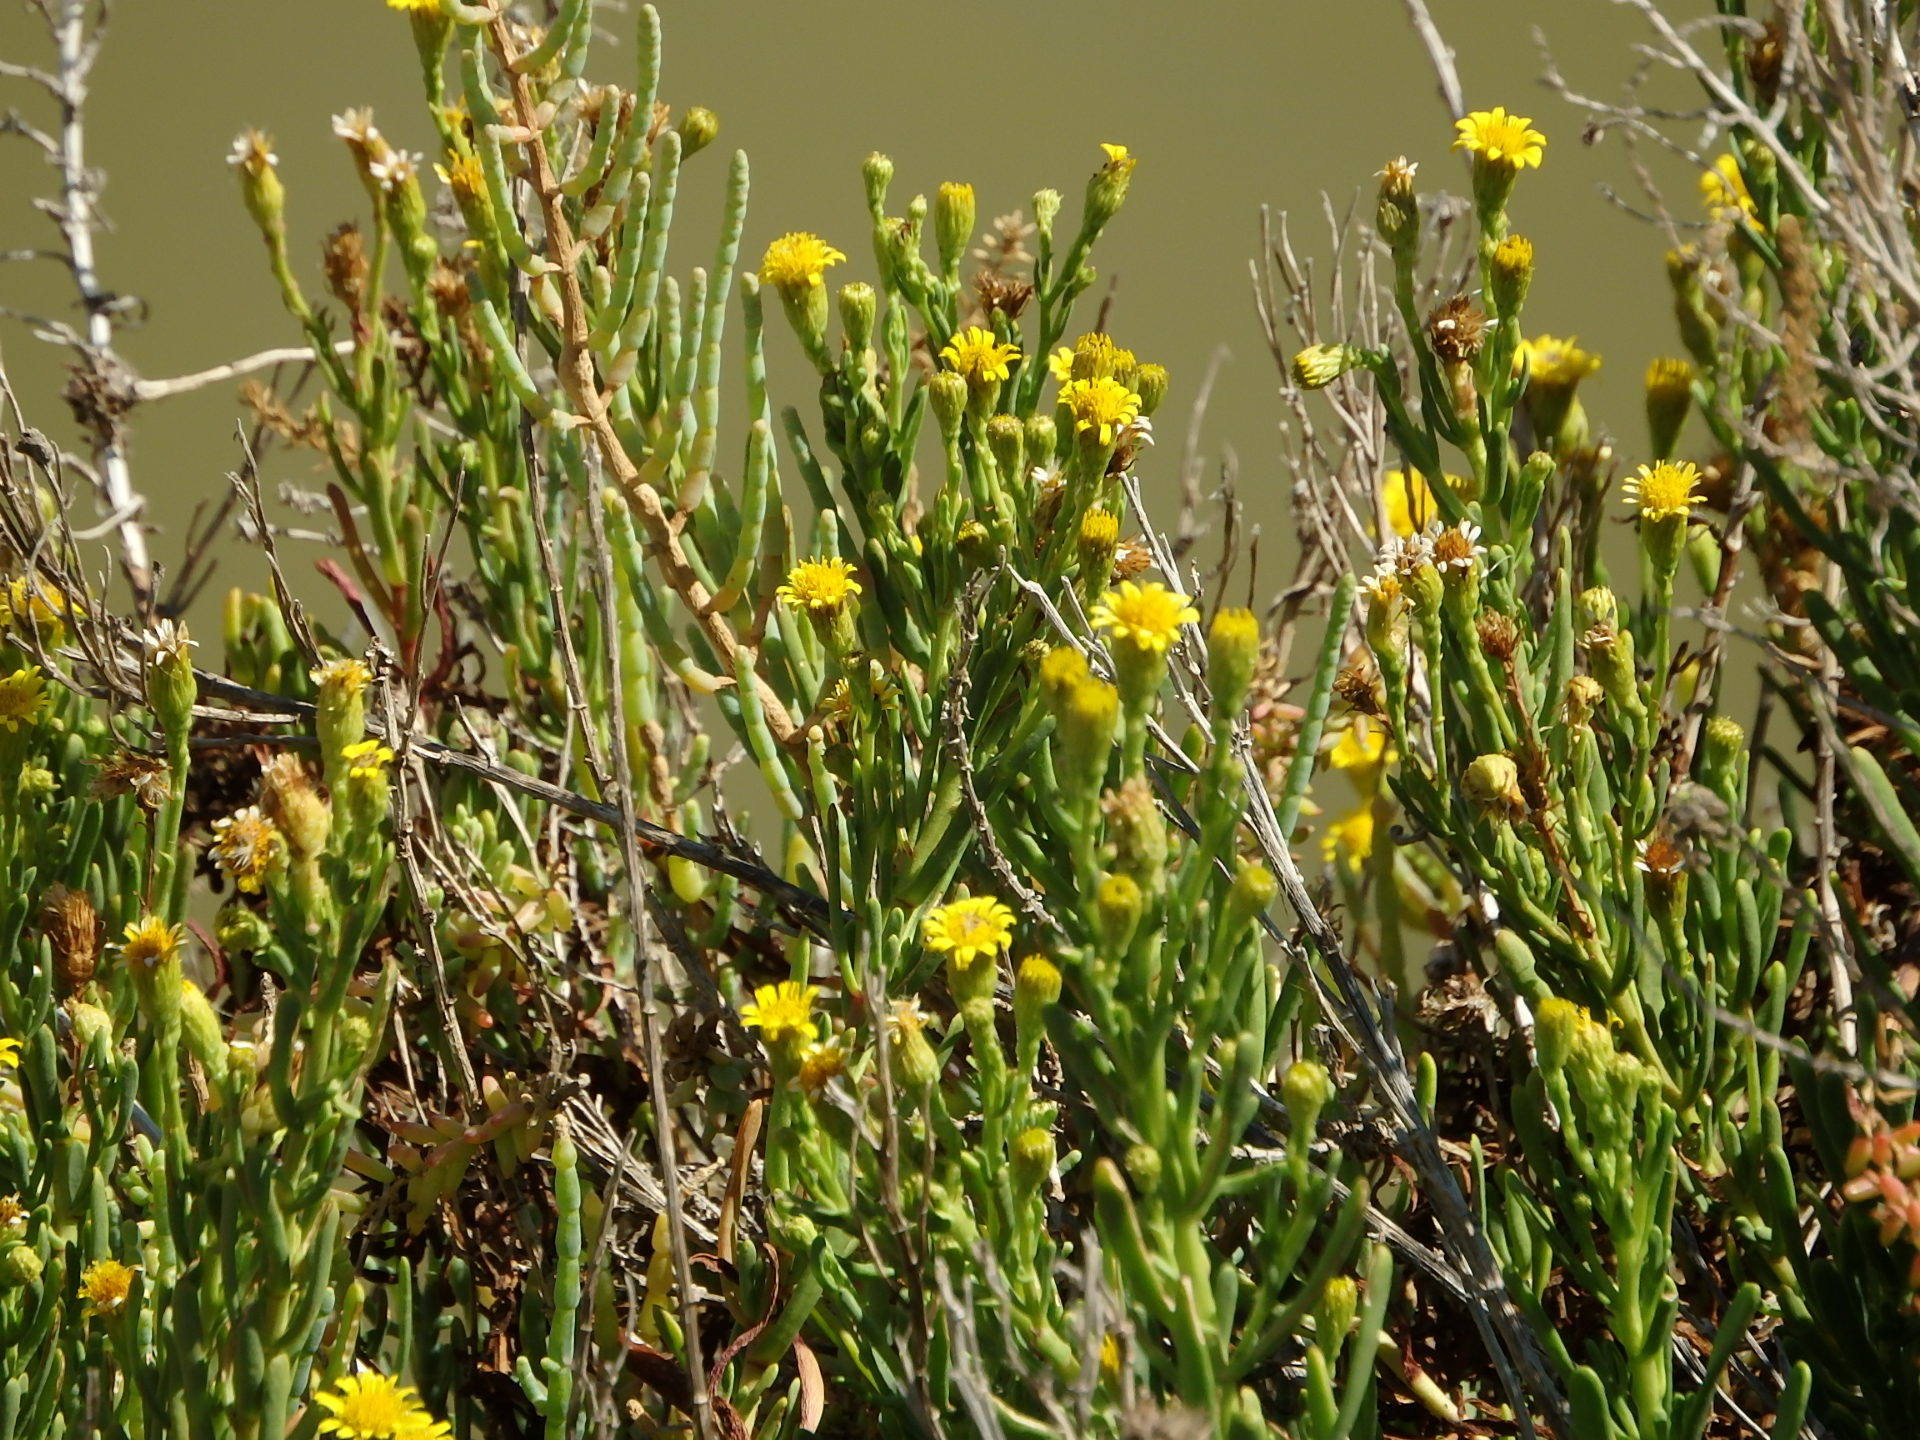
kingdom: Plantae
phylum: Tracheophyta
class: Magnoliopsida
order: Asterales
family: Asteraceae
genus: Limbarda
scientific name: Limbarda crithmoides
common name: Golden samphire
